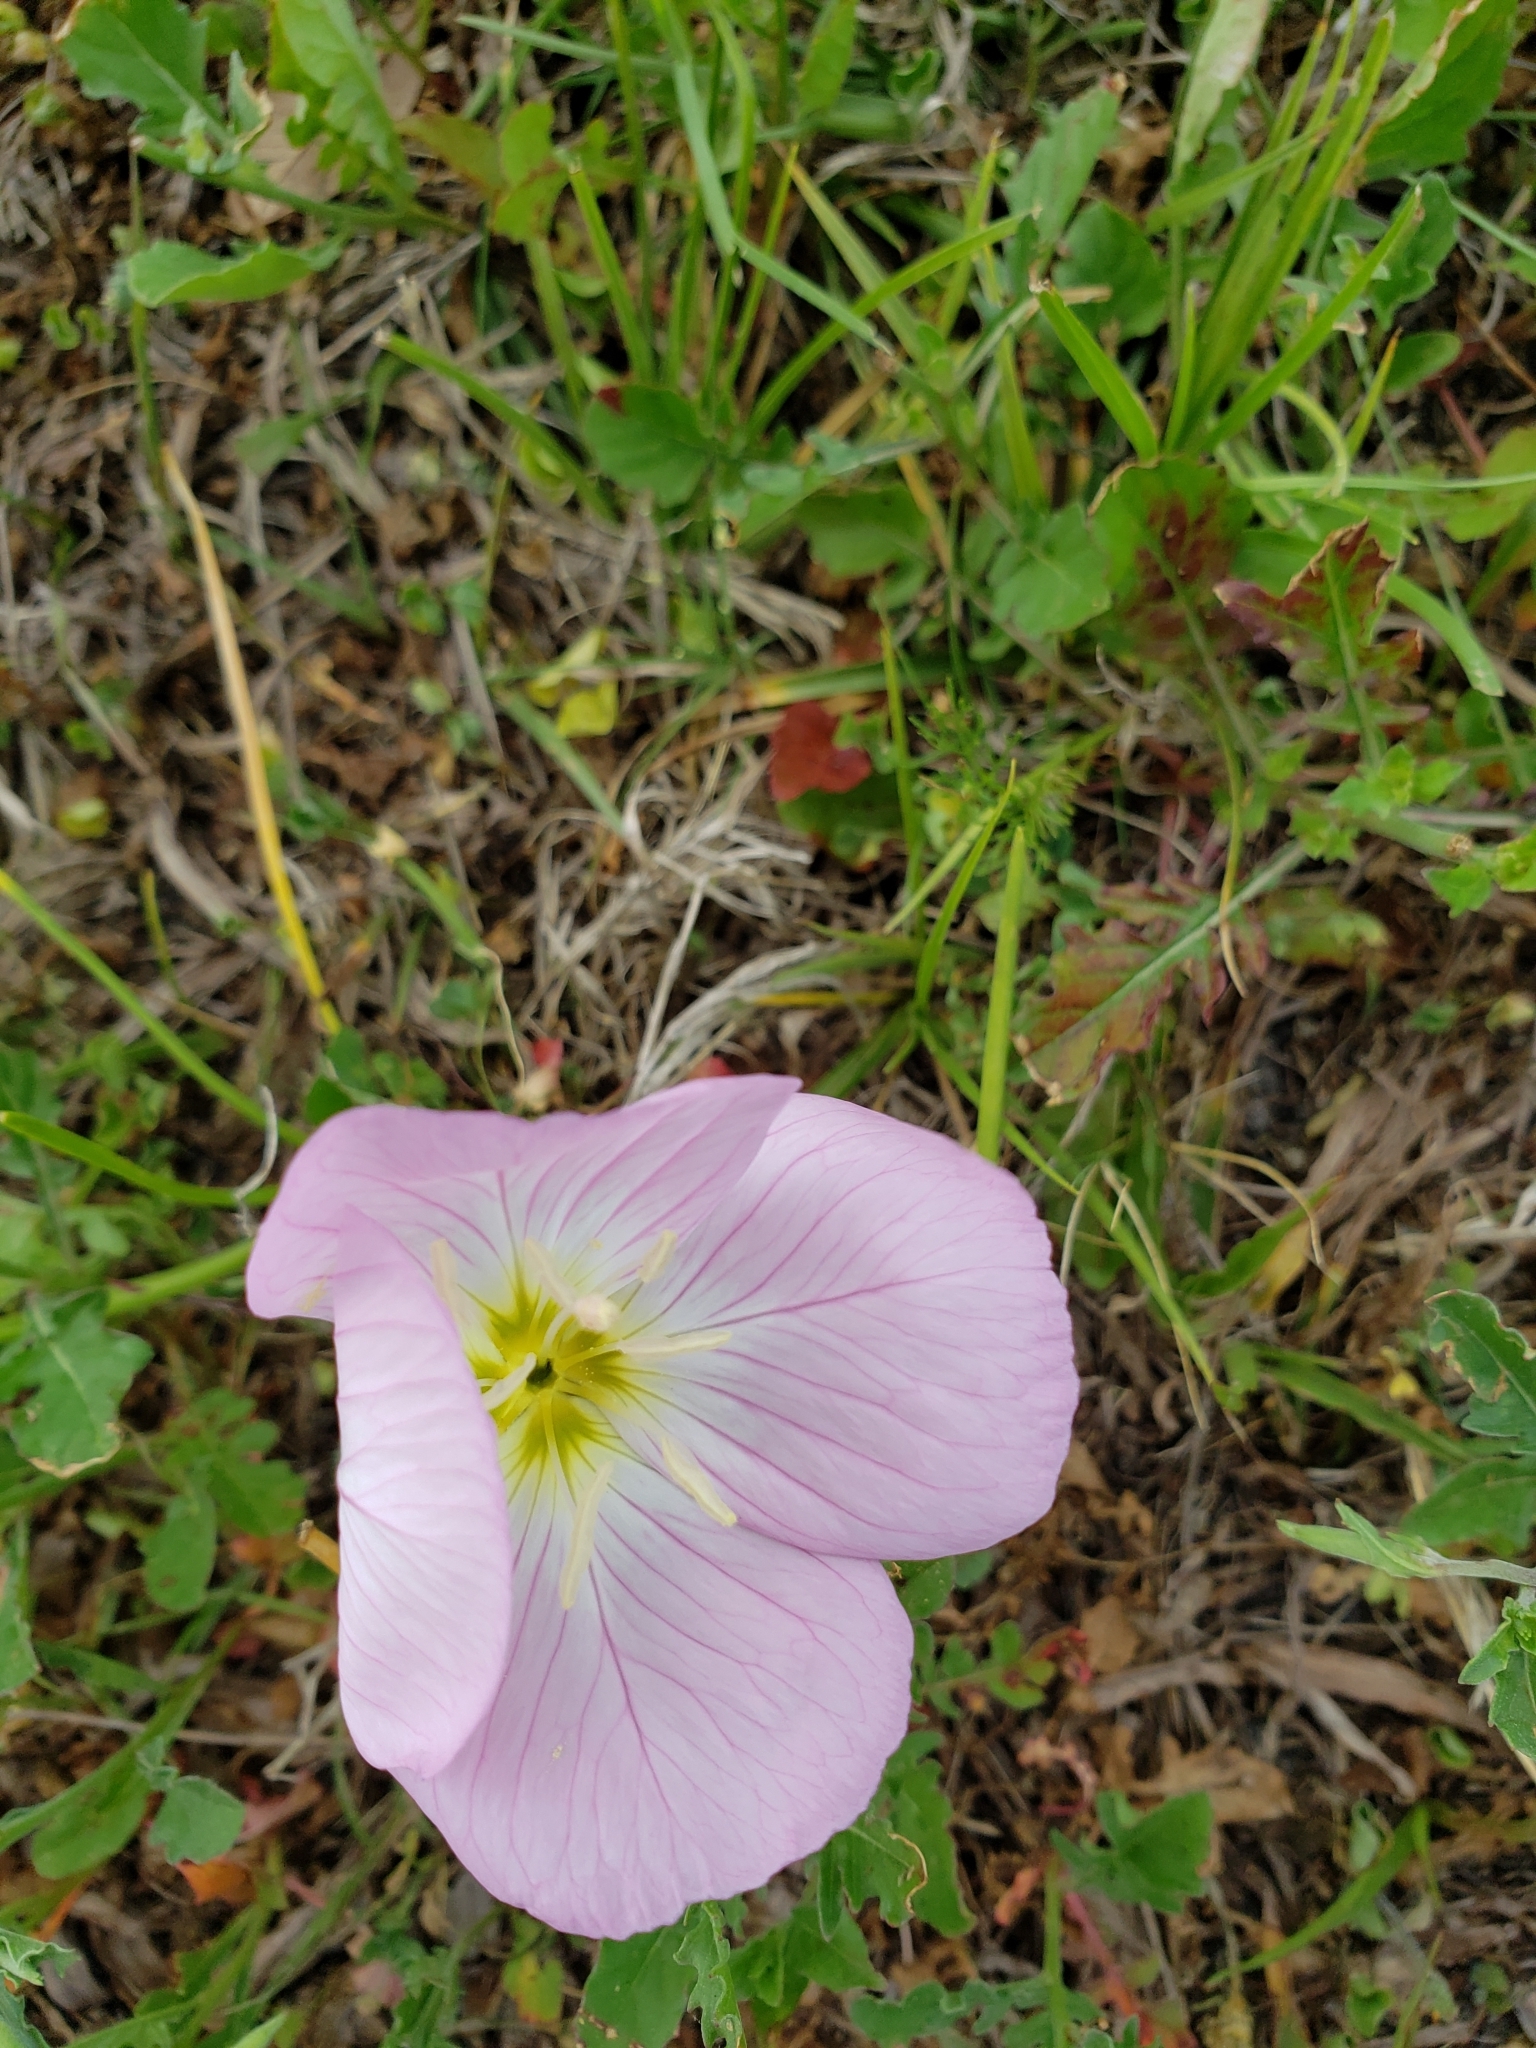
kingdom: Plantae
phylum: Tracheophyta
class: Magnoliopsida
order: Myrtales
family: Onagraceae
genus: Oenothera
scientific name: Oenothera speciosa
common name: White evening-primrose
